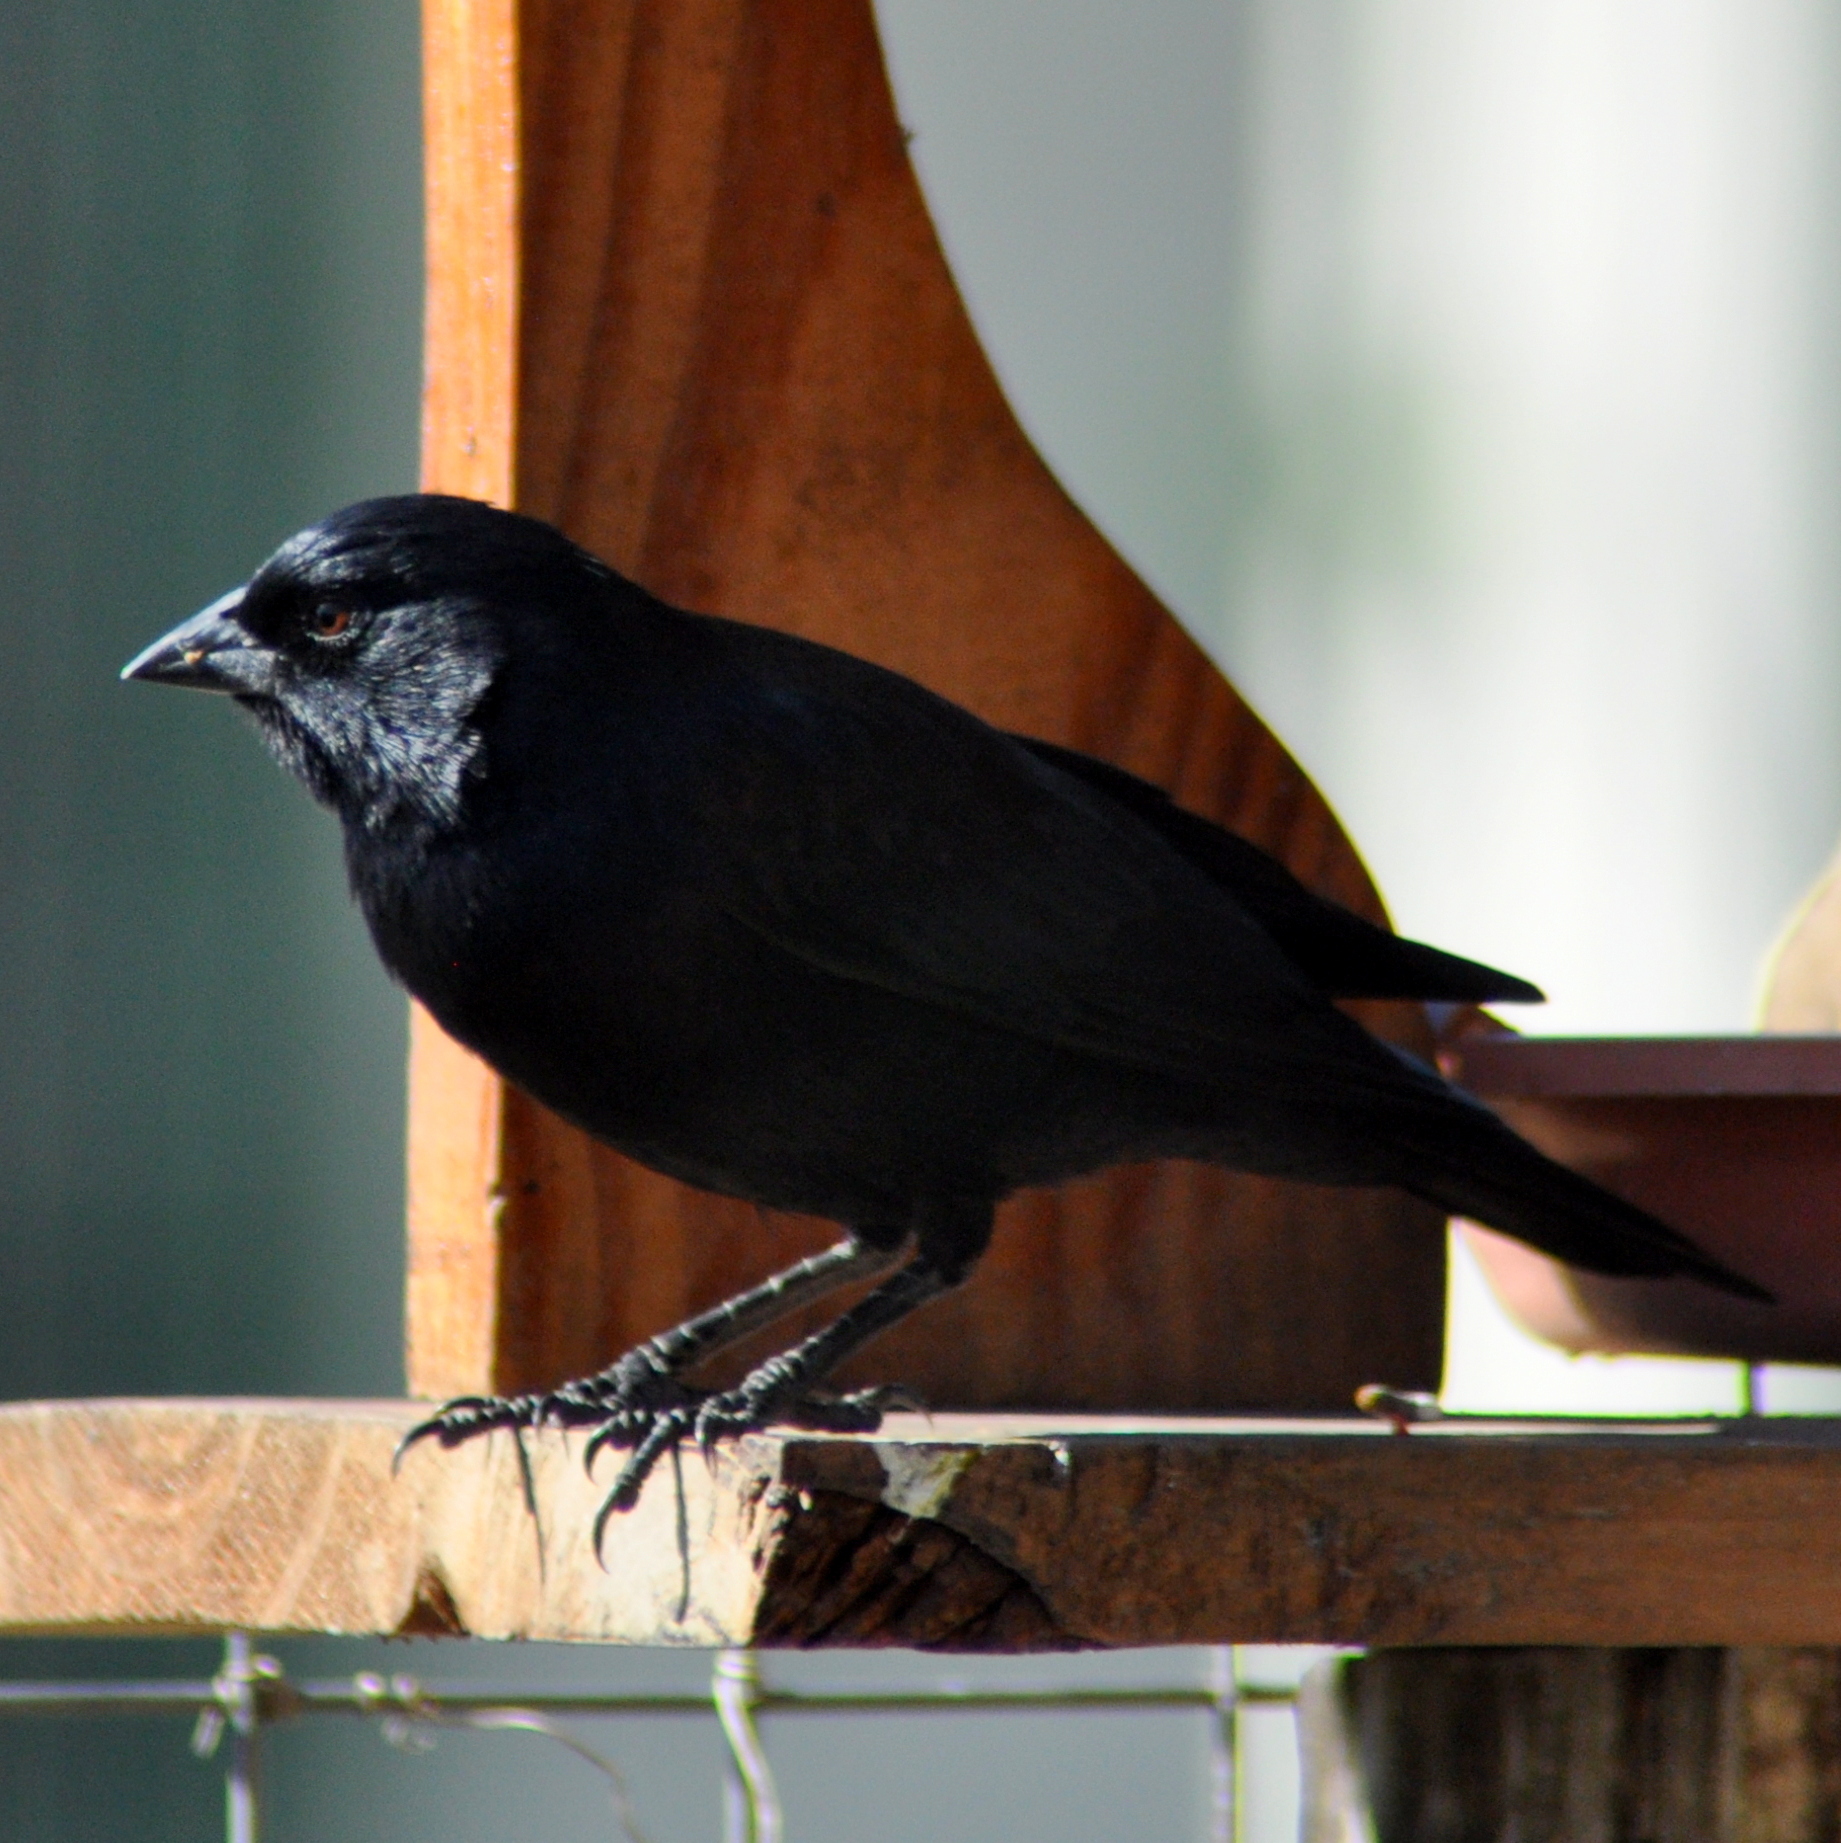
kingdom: Animalia
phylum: Chordata
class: Aves
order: Passeriformes
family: Icteridae
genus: Molothrus
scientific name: Molothrus rufoaxillaris
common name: Screaming cowbird
